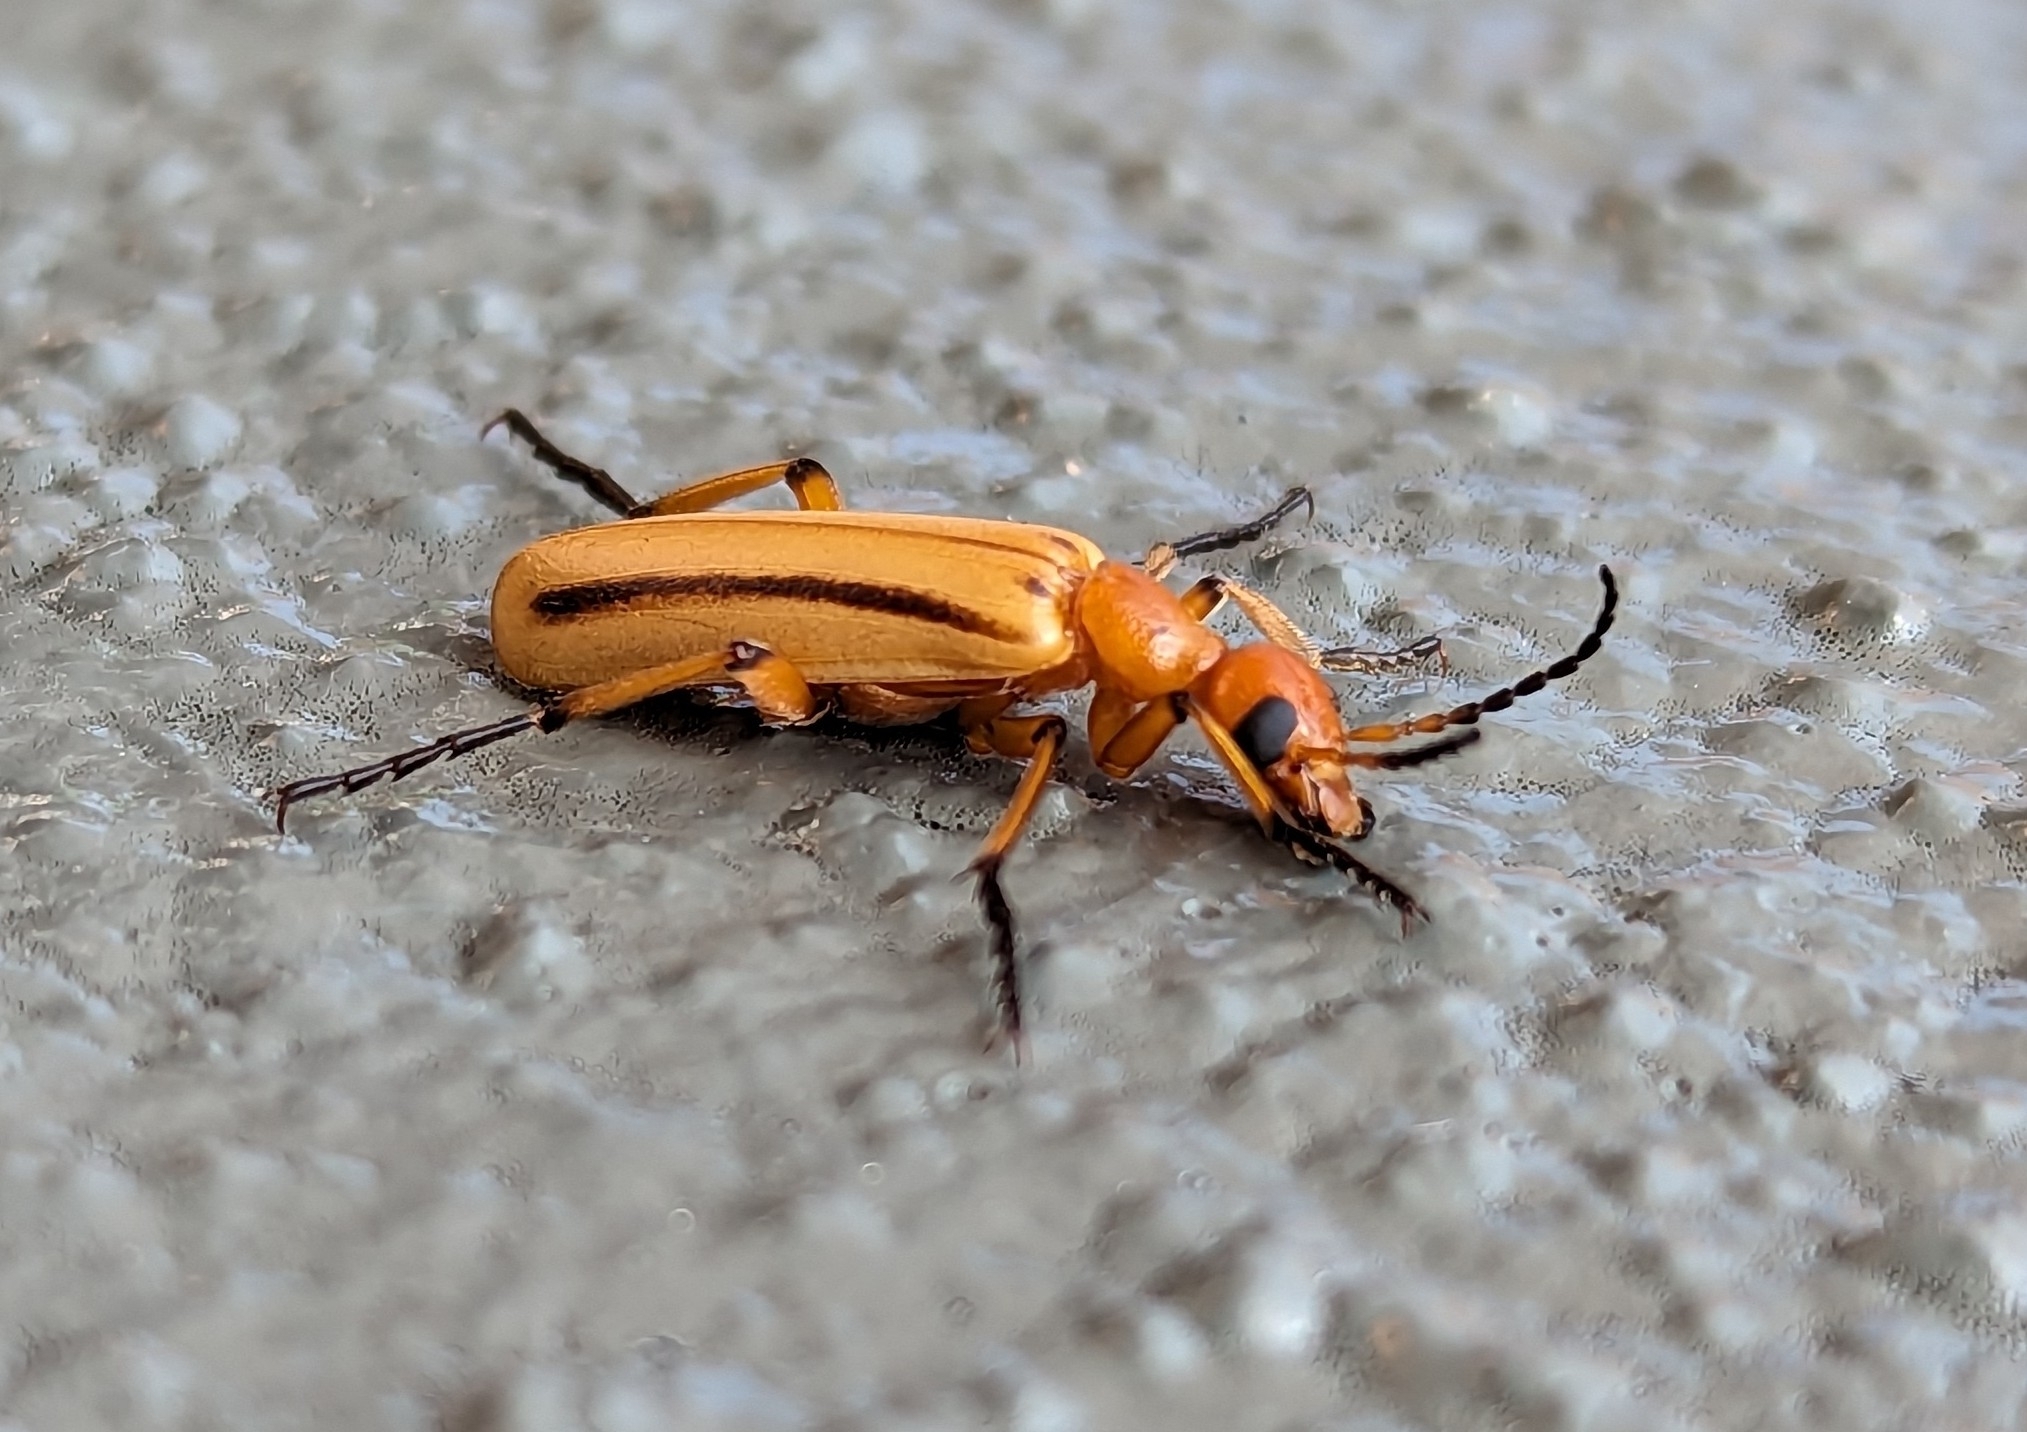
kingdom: Animalia
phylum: Arthropoda
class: Insecta
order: Coleoptera
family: Meloidae
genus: Pyrota
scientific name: Pyrota
